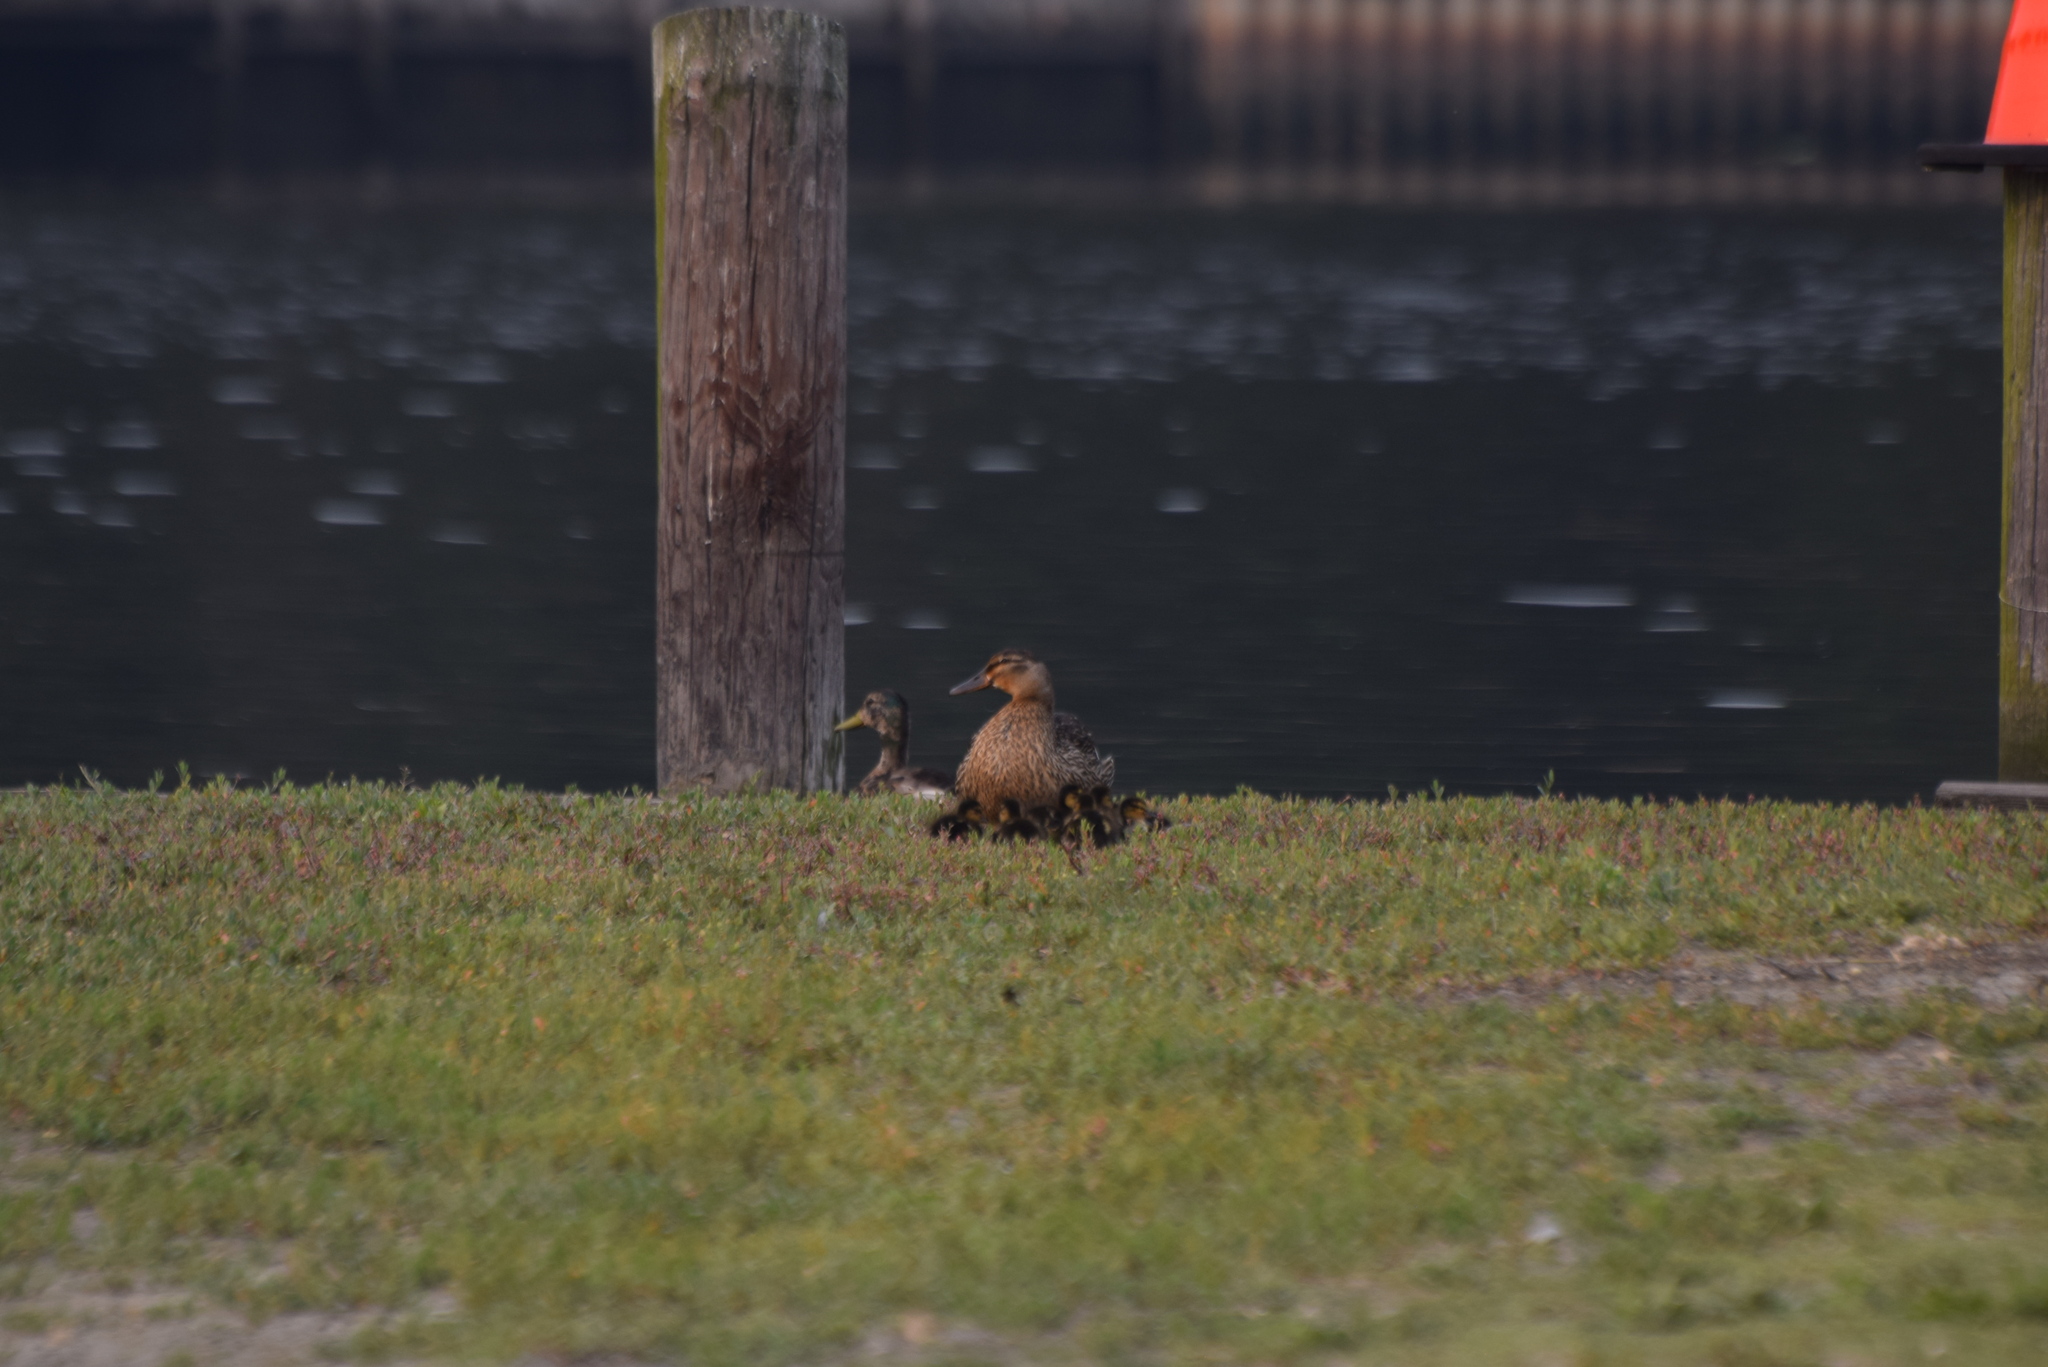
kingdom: Animalia
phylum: Chordata
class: Aves
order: Anseriformes
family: Anatidae
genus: Anas
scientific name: Anas platyrhynchos
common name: Mallard
